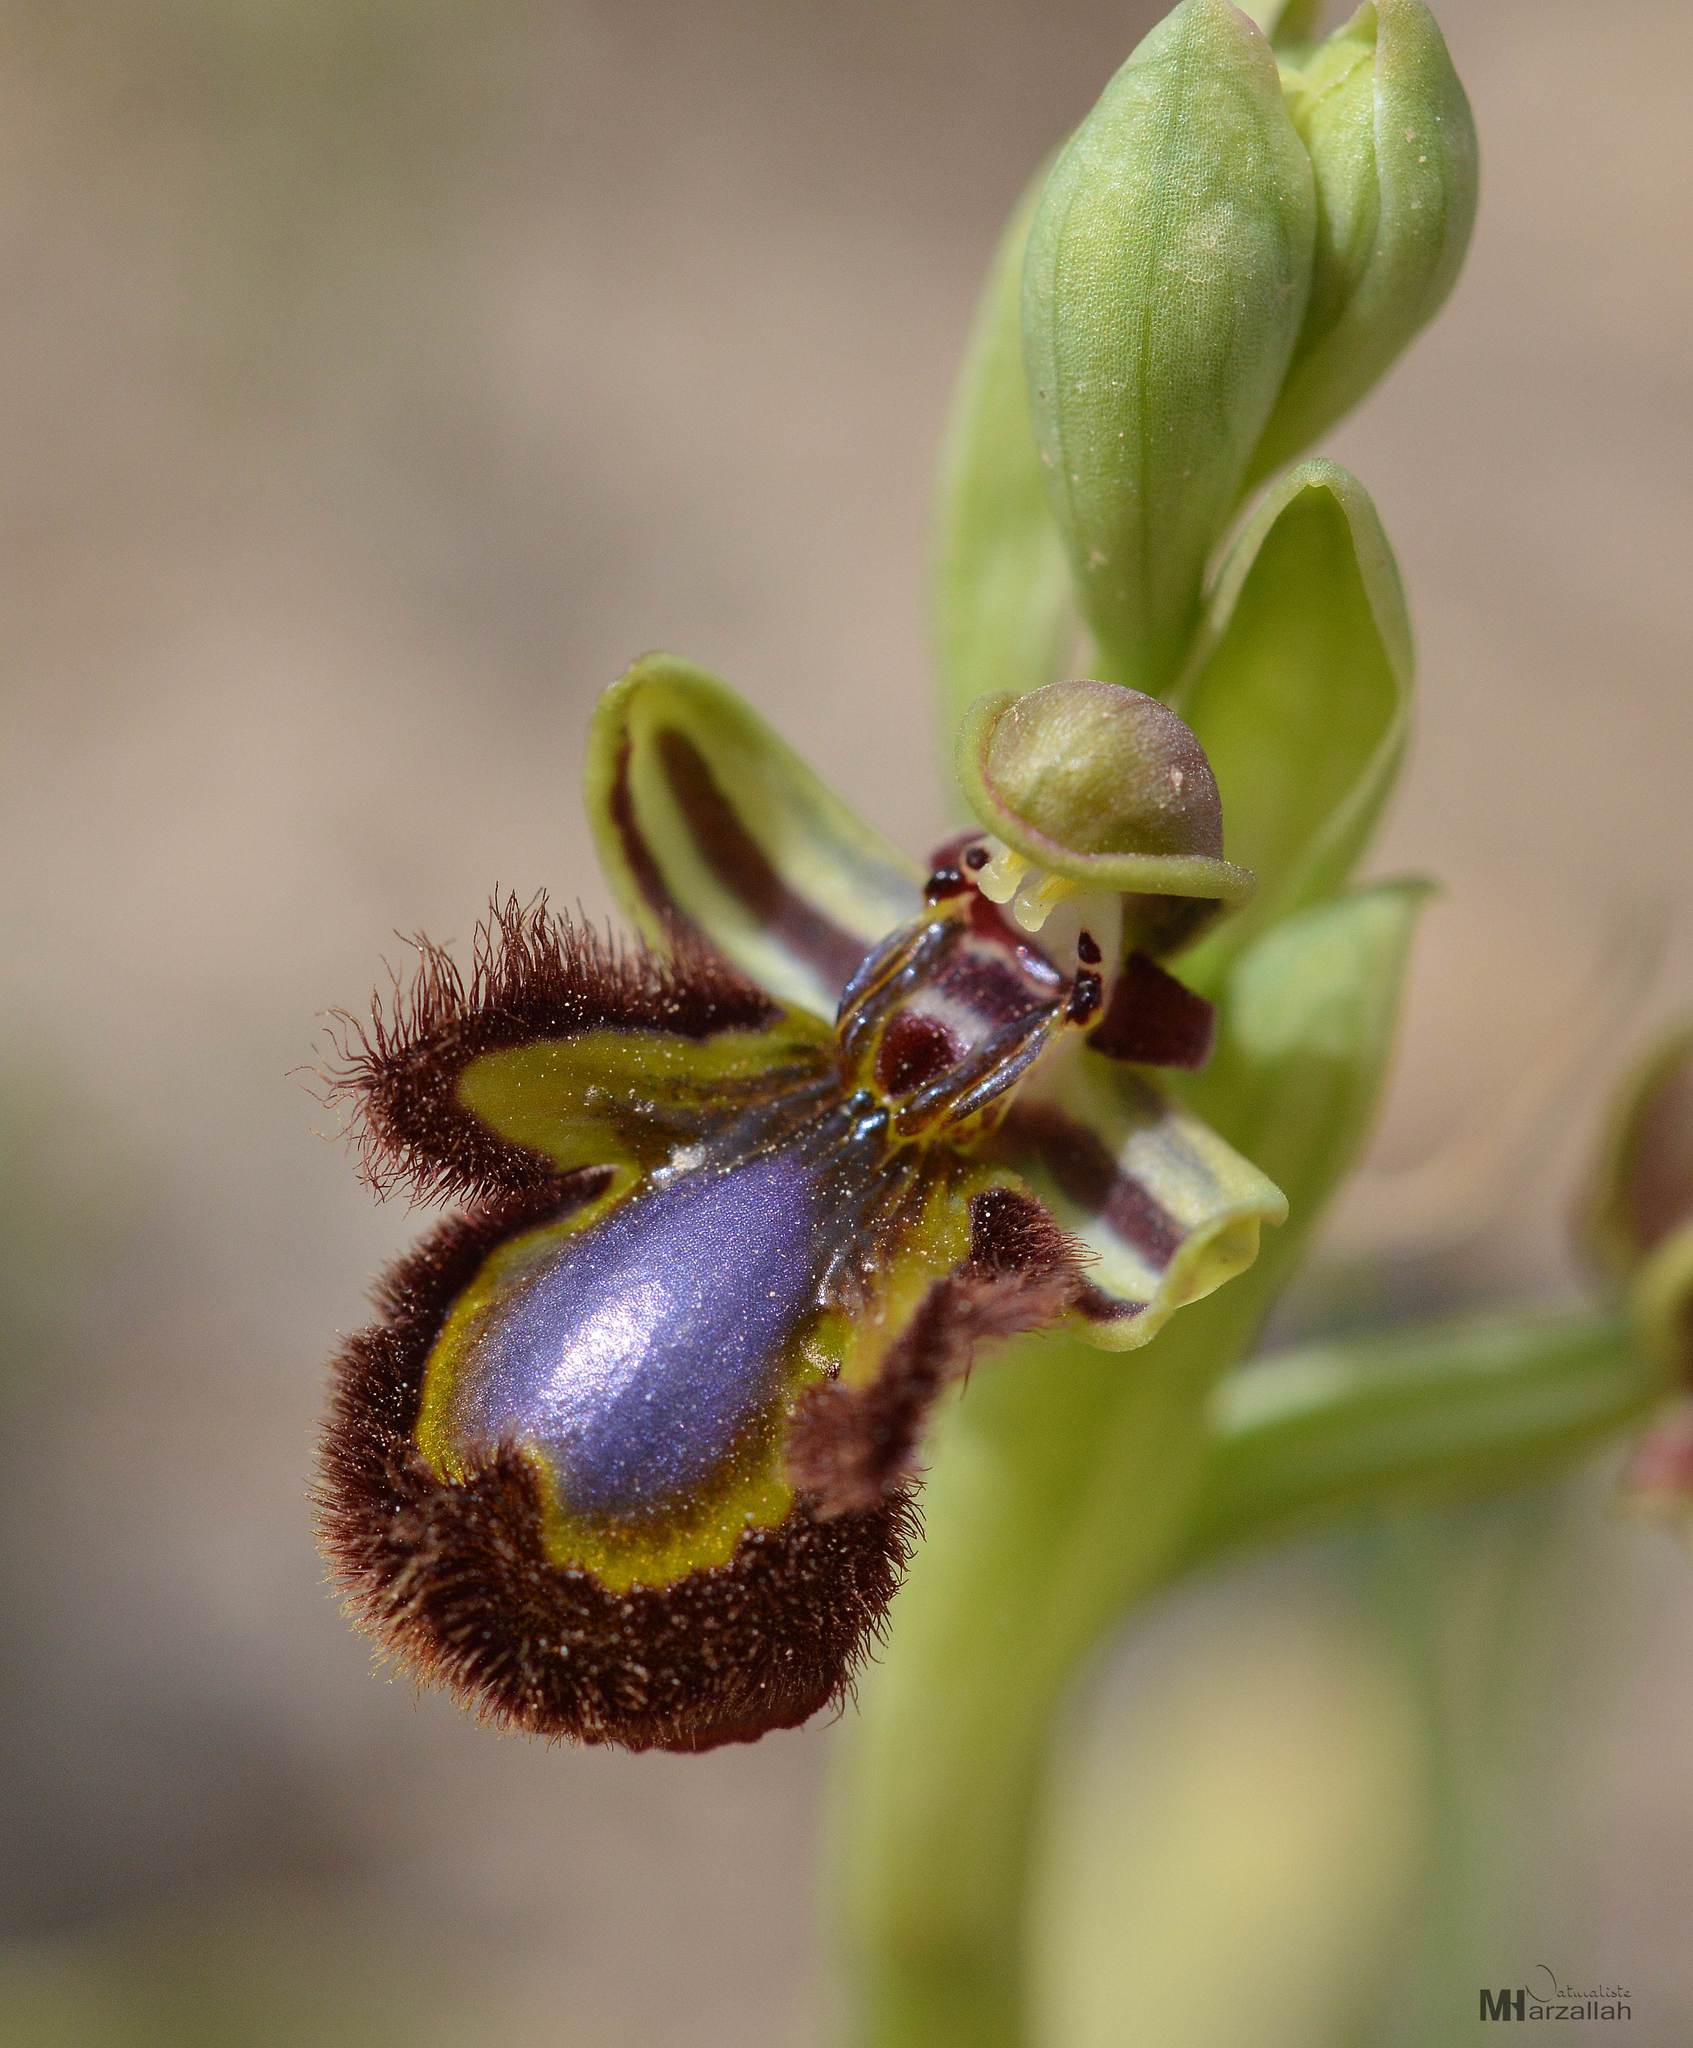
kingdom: Plantae
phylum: Tracheophyta
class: Liliopsida
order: Asparagales
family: Orchidaceae
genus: Ophrys
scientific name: Ophrys speculum
